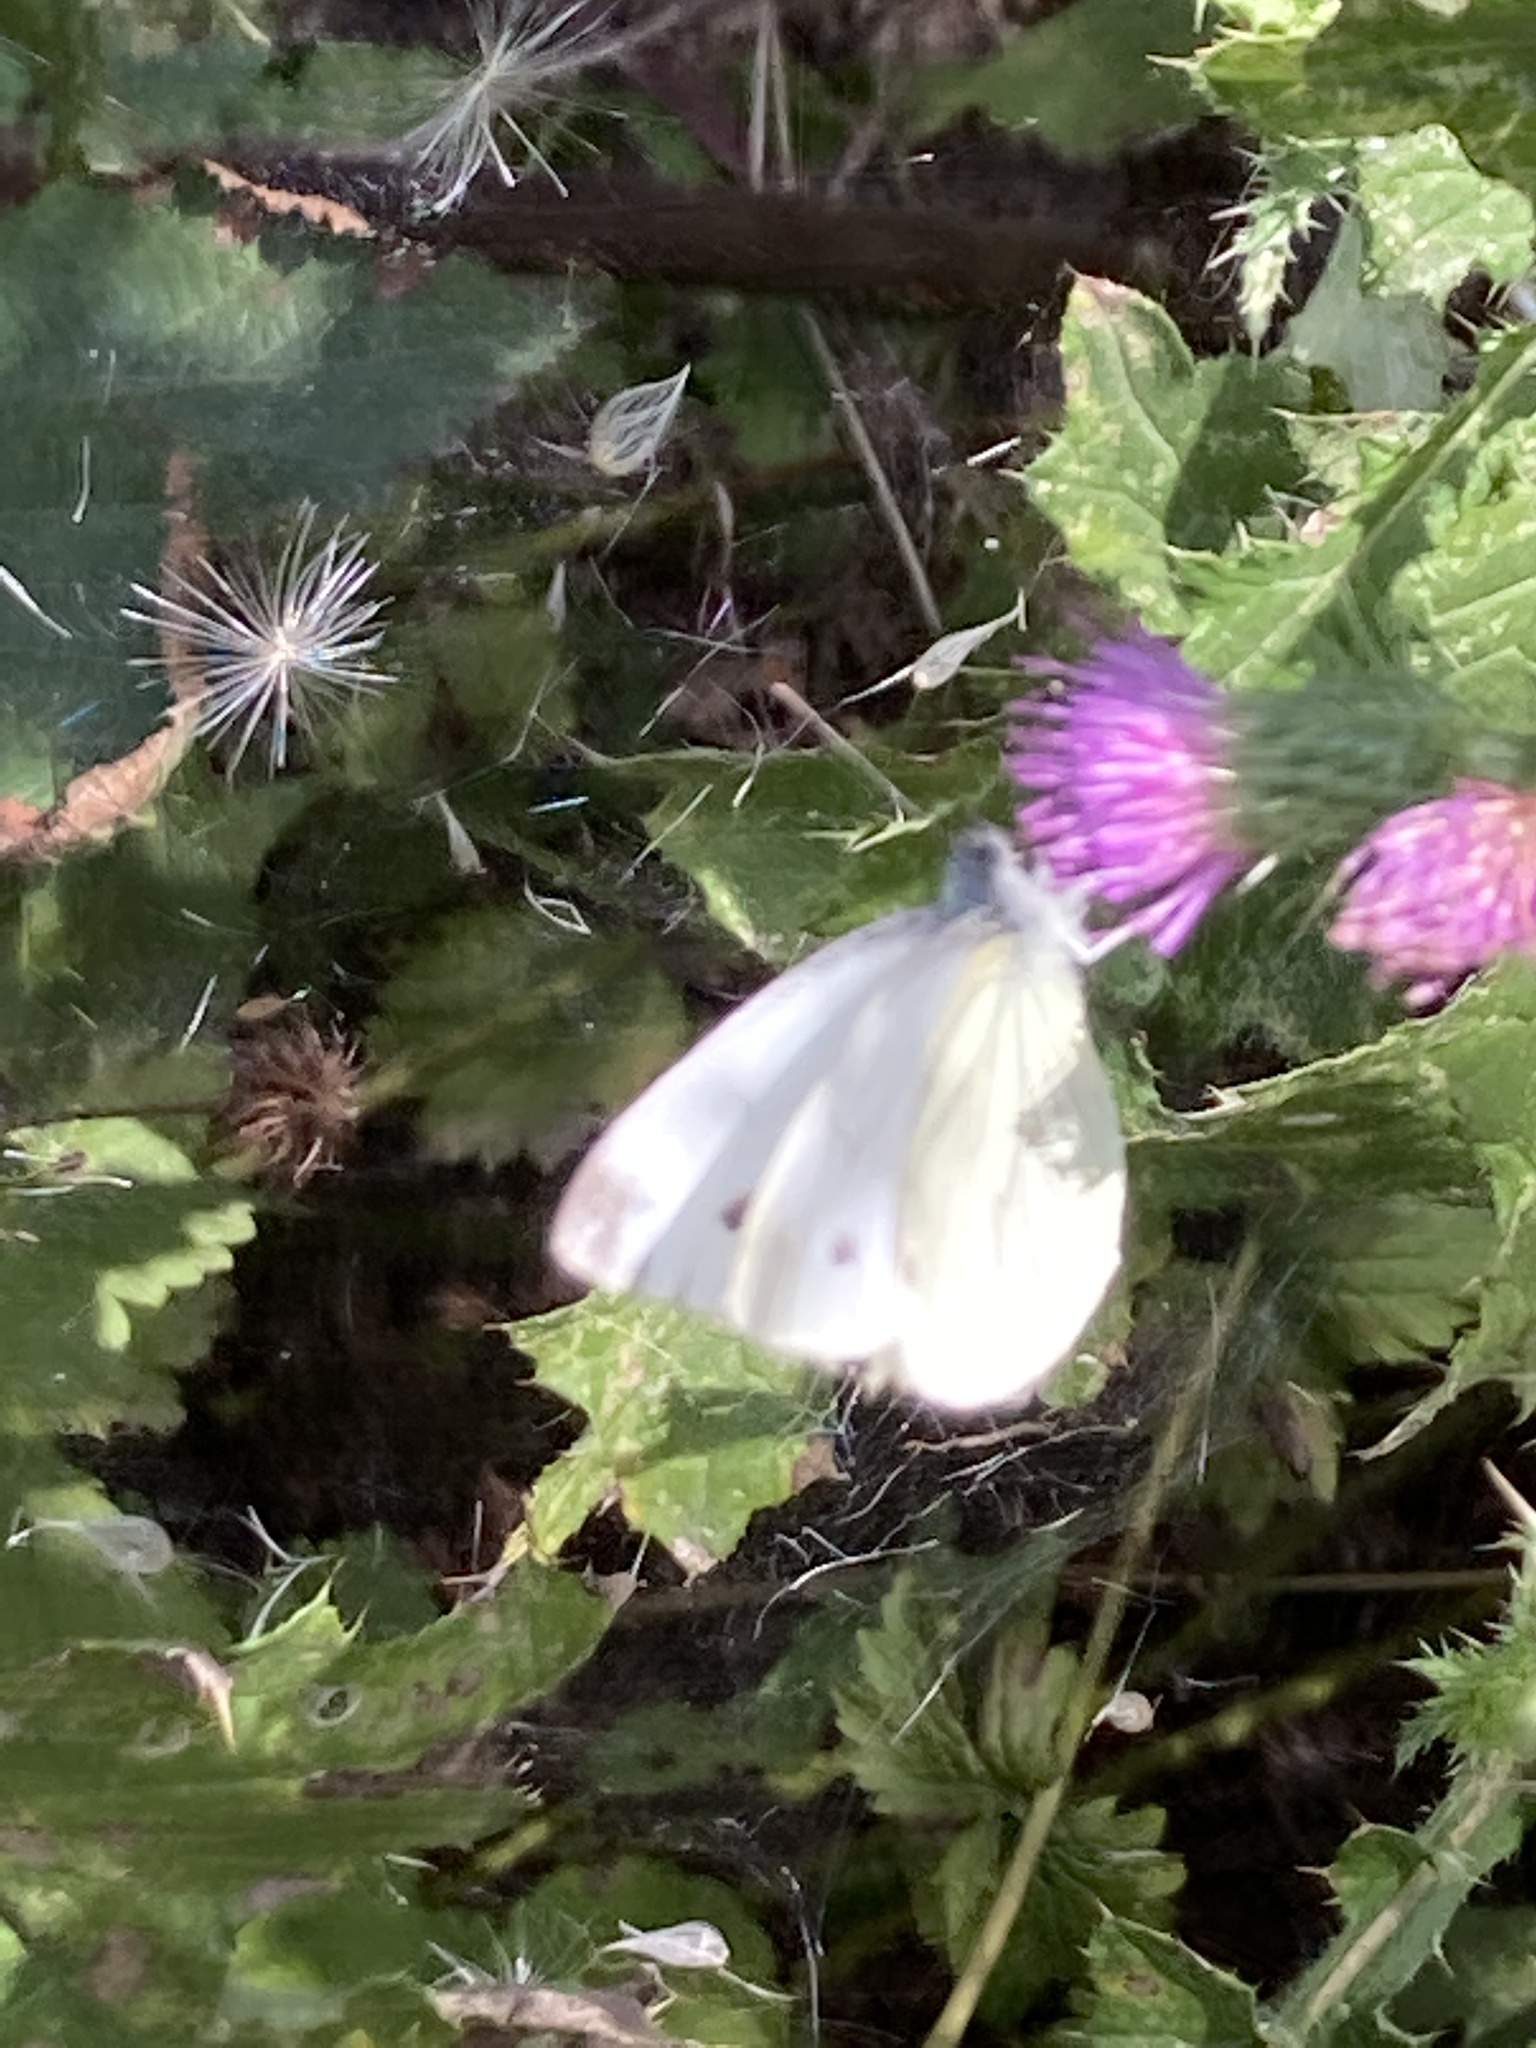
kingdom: Animalia
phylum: Arthropoda
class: Insecta
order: Lepidoptera
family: Pieridae
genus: Pieris
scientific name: Pieris napi
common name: Green-veined white
